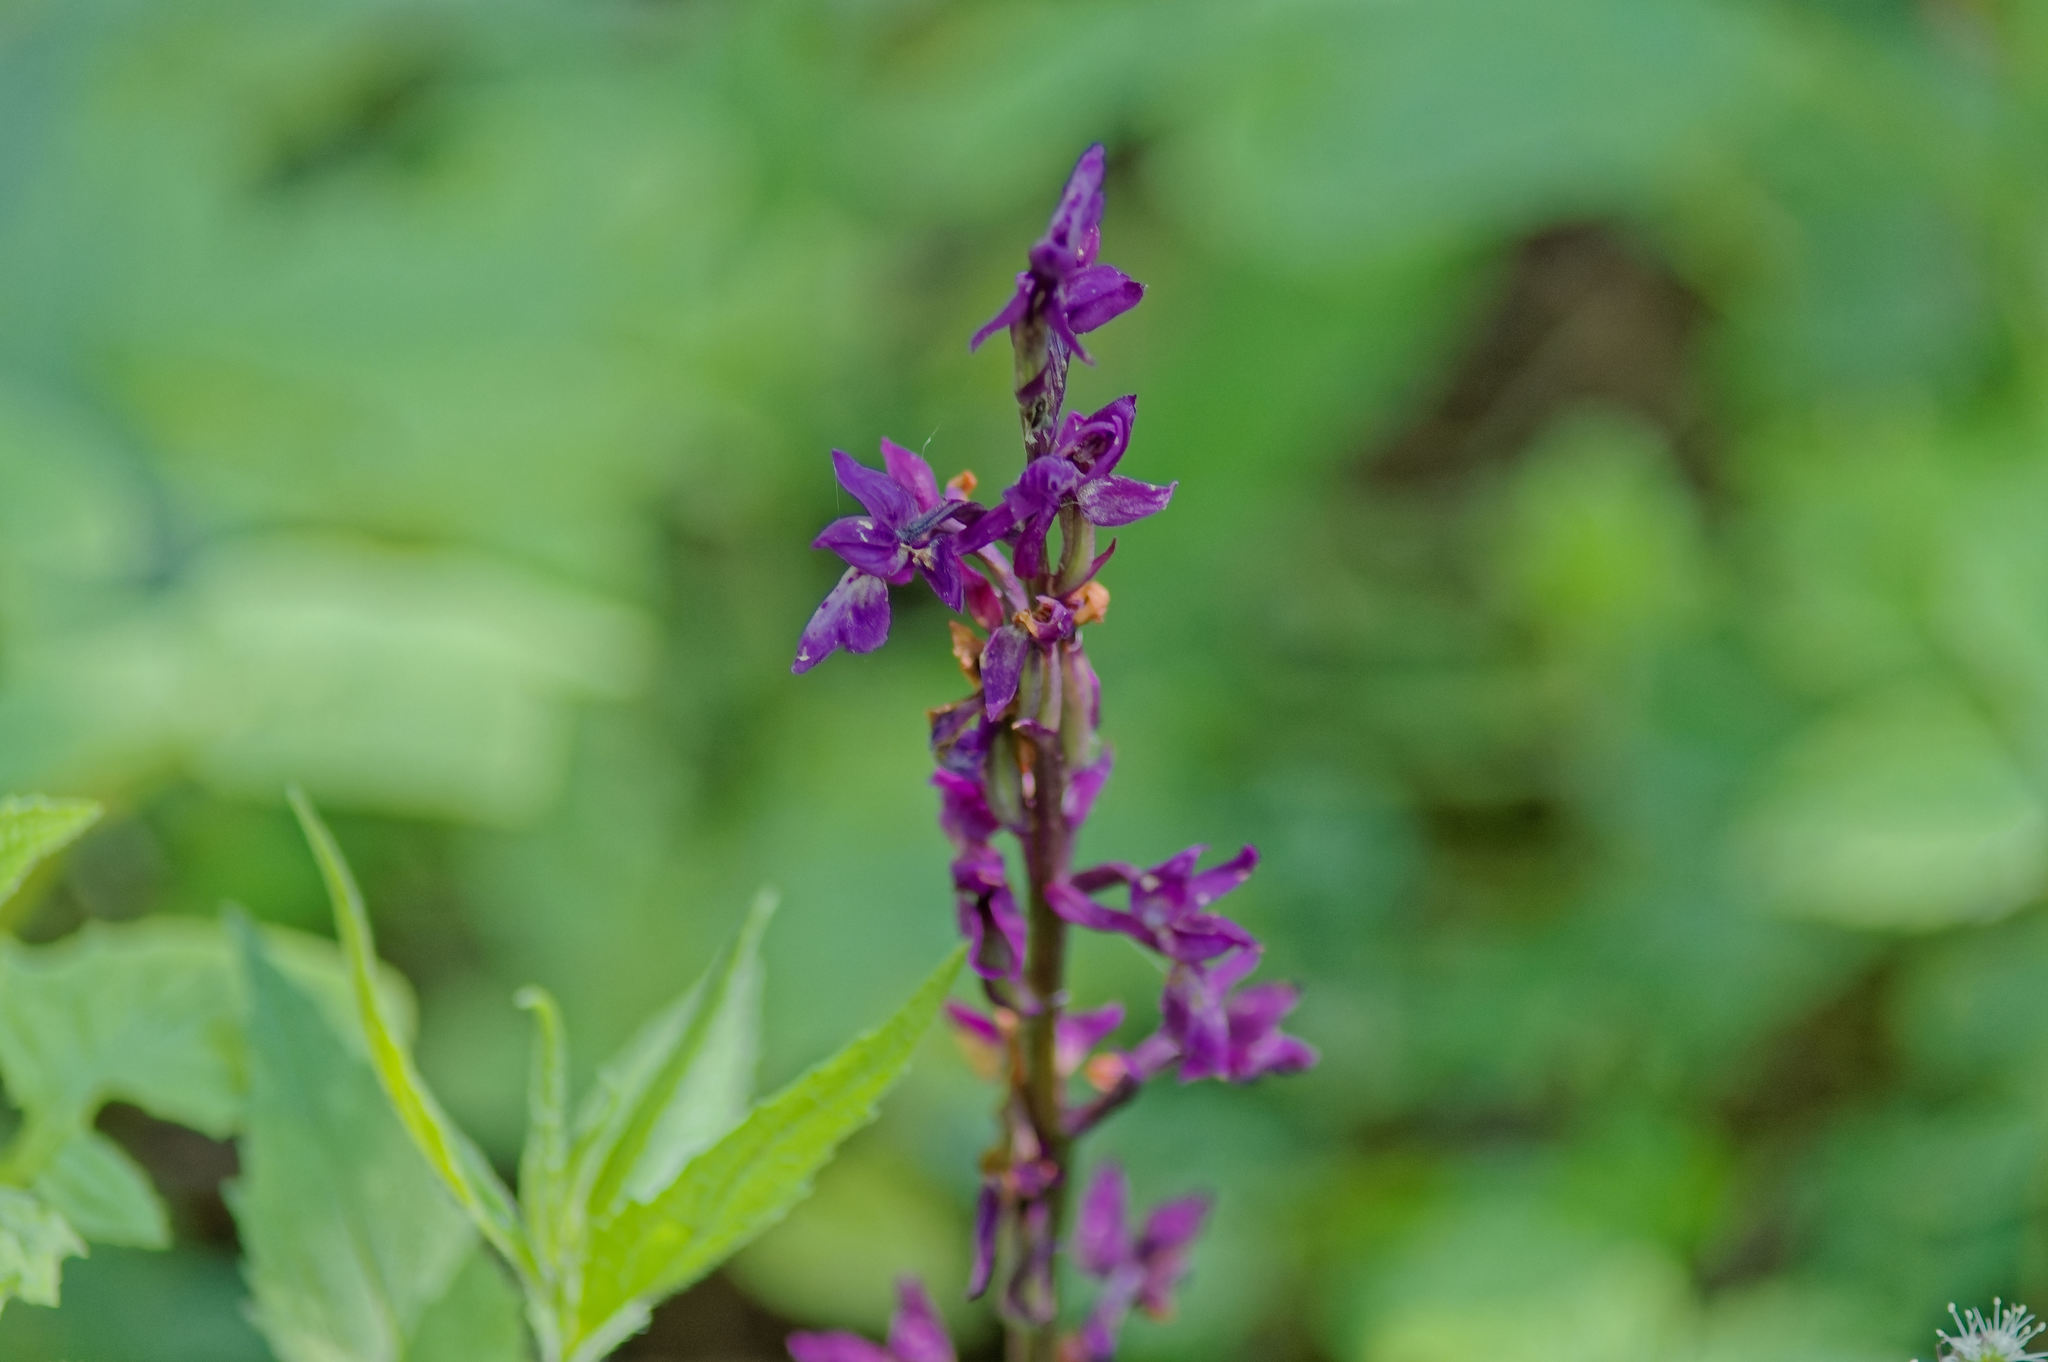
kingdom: Plantae
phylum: Tracheophyta
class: Liliopsida
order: Asparagales
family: Orchidaceae
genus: Orchis
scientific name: Orchis mascula
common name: Early-purple orchid
